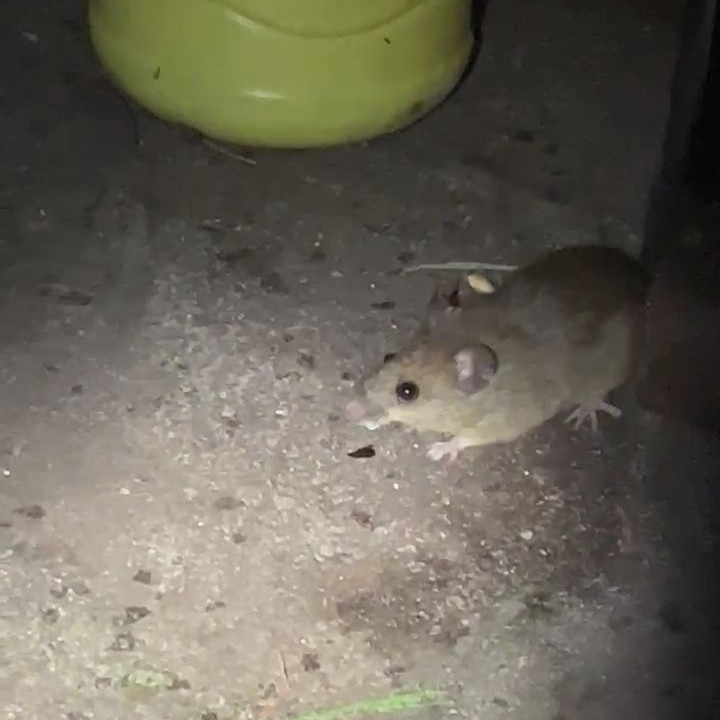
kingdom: Animalia
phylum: Chordata
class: Mammalia
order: Rodentia
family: Cricetidae
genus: Oligoryzomys
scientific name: Oligoryzomys nigripes
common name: Black-footed colilargo
